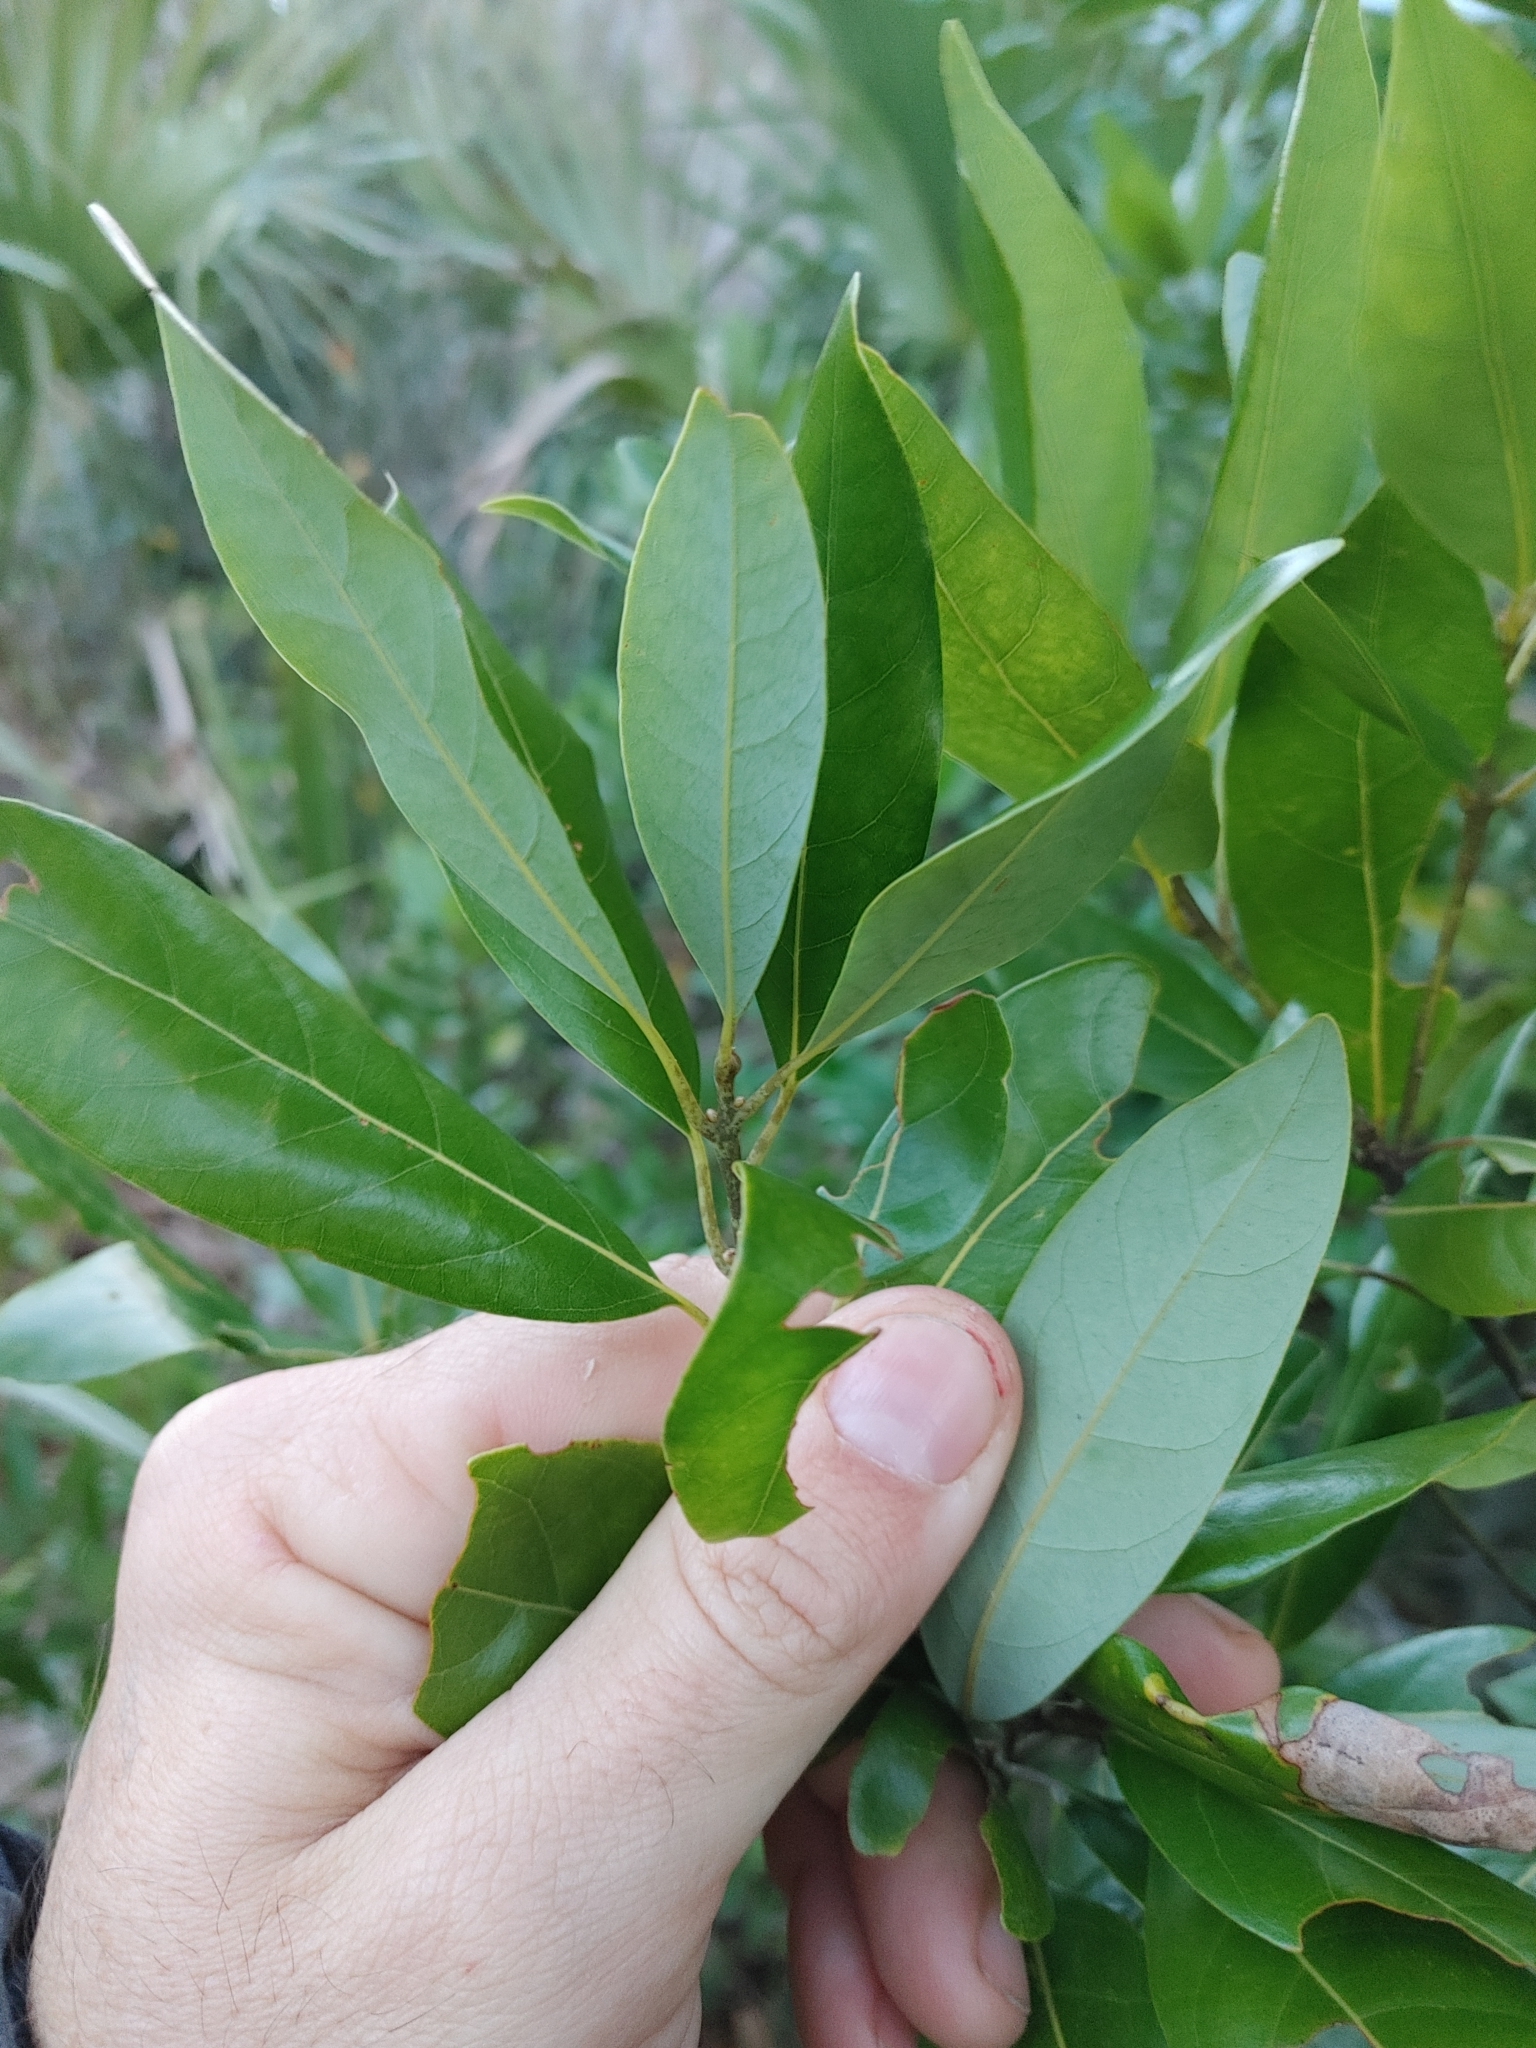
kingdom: Plantae
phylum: Tracheophyta
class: Magnoliopsida
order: Laurales
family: Lauraceae
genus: Persea
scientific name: Persea borbonia
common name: Redbay
